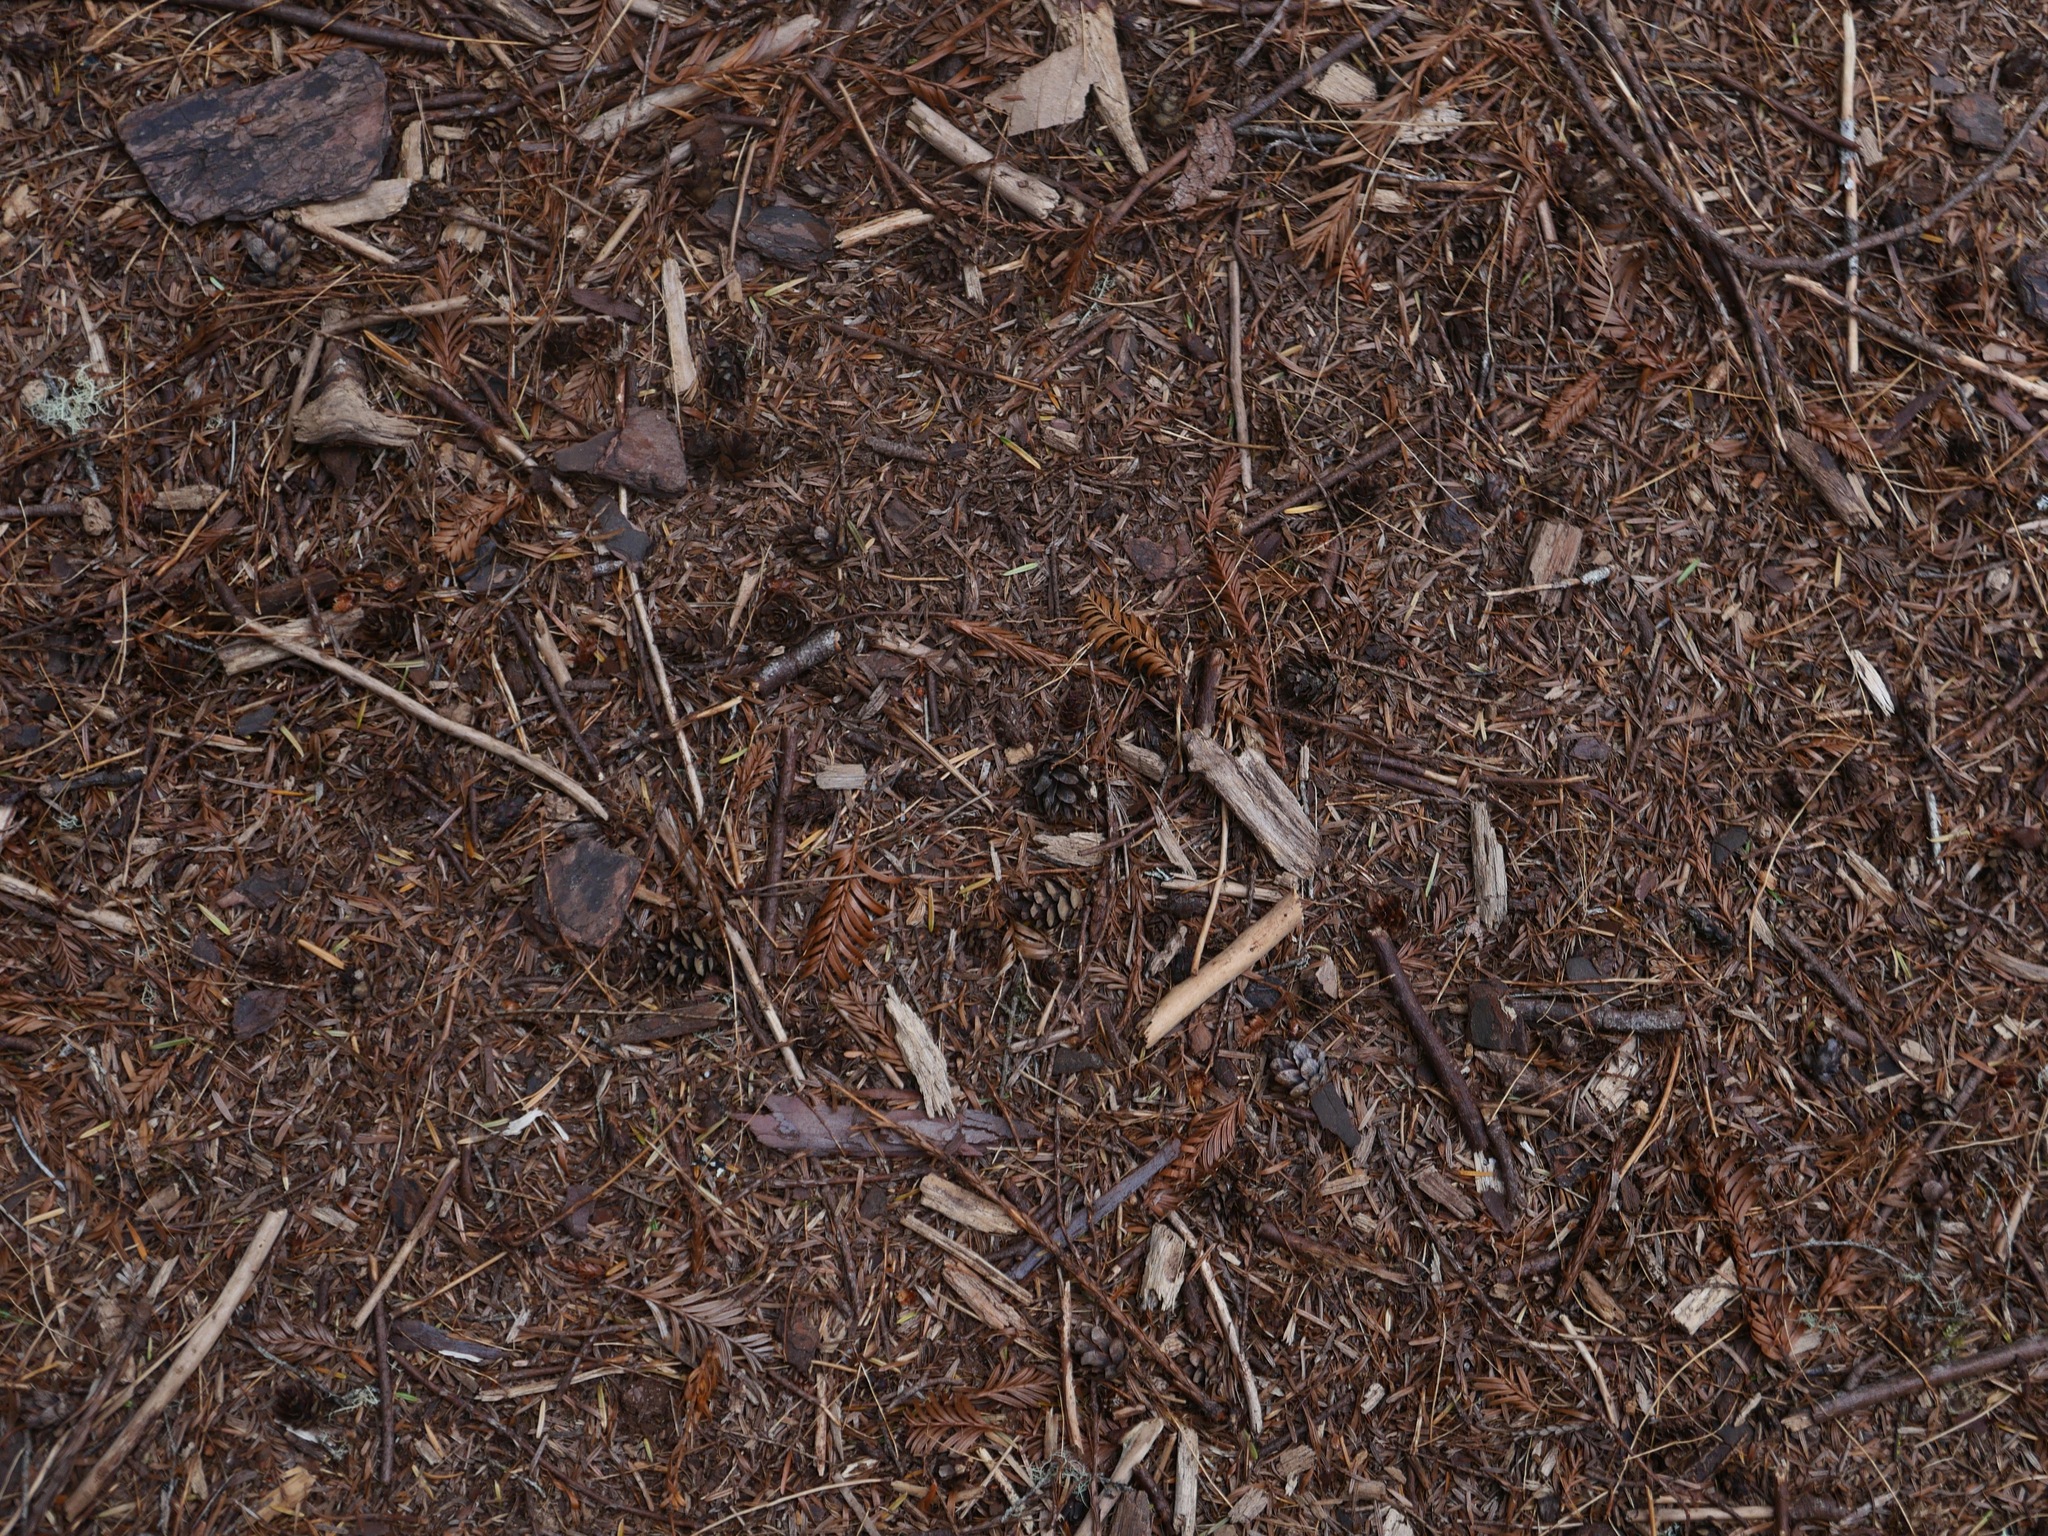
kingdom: Plantae
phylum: Tracheophyta
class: Pinopsida
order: Pinales
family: Pinaceae
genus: Tsuga
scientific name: Tsuga heterophylla
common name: Western hemlock
